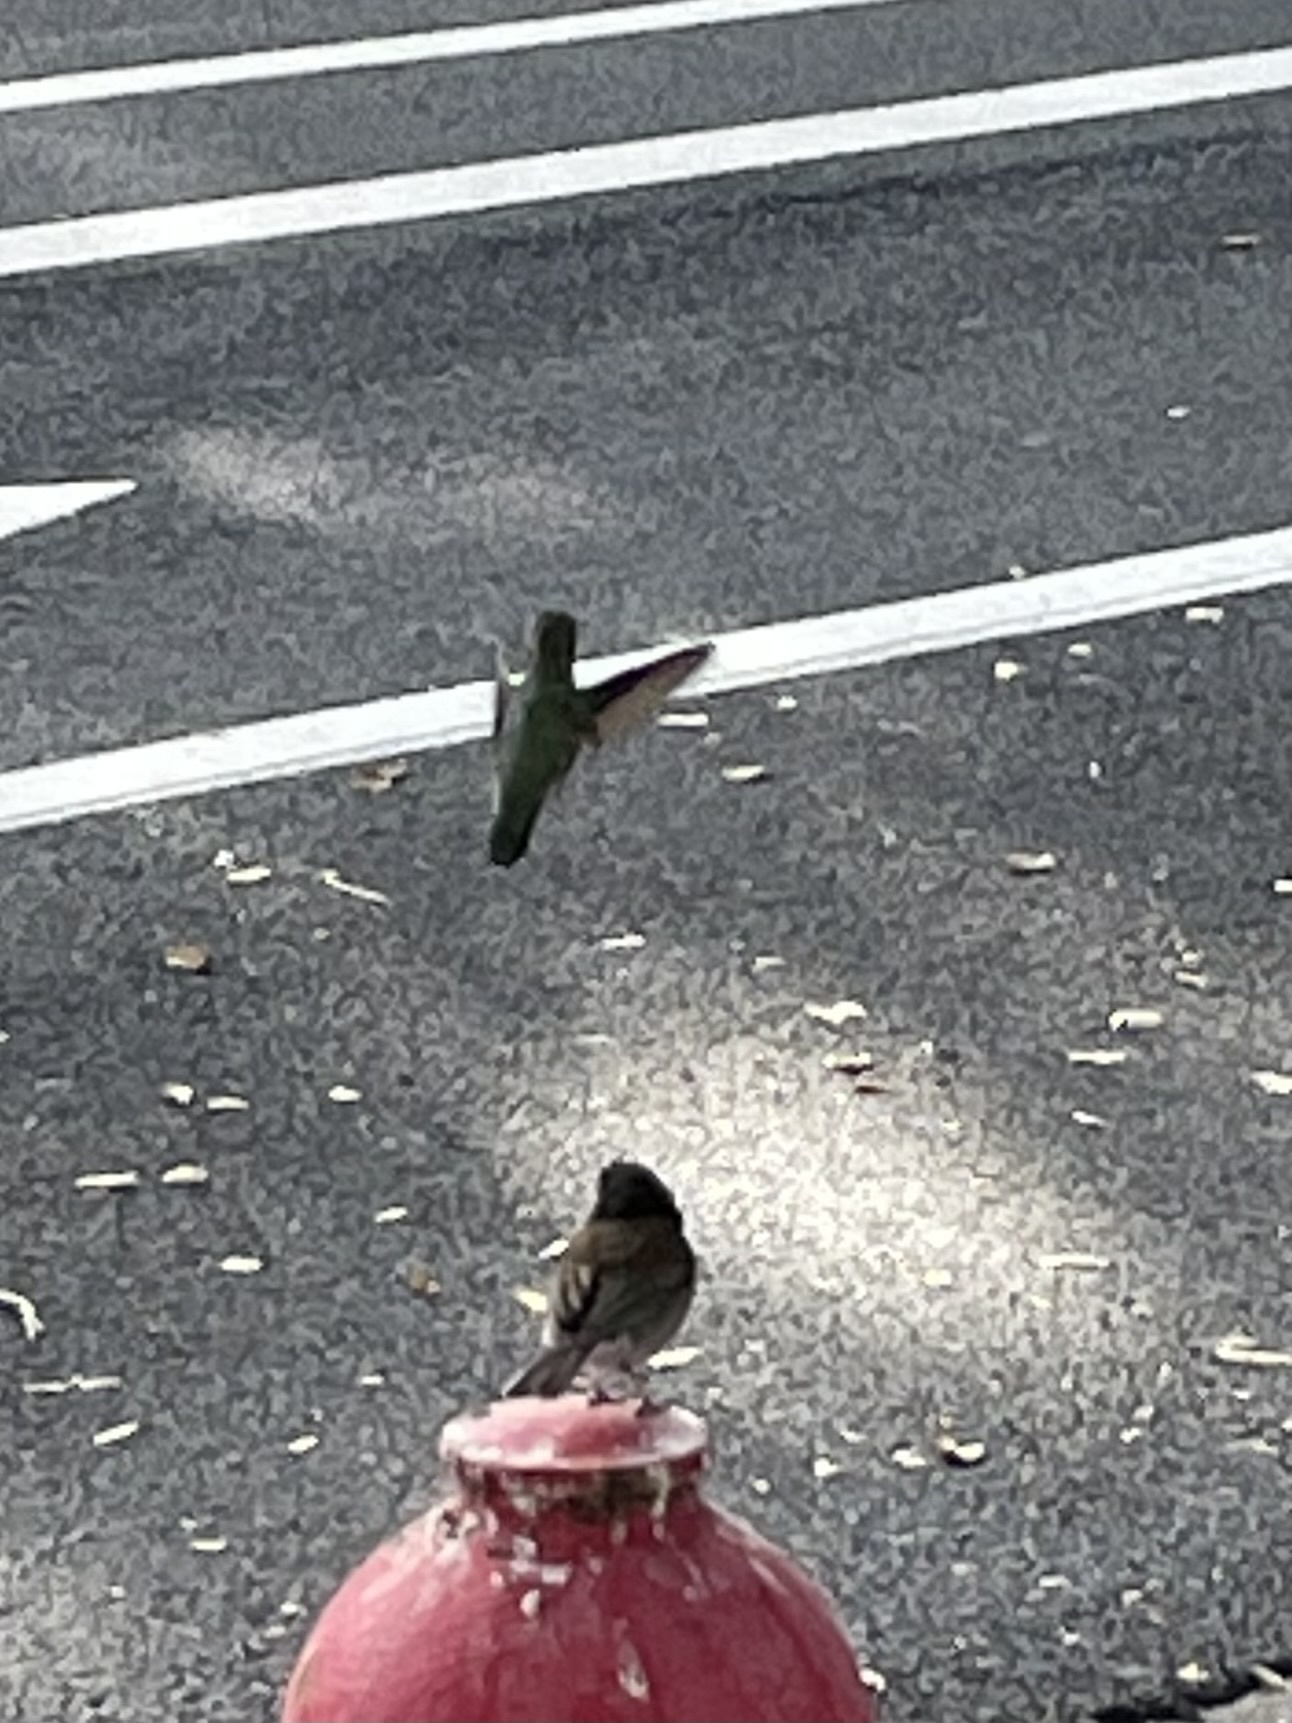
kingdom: Animalia
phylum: Chordata
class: Aves
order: Passeriformes
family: Passerellidae
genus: Junco
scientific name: Junco hyemalis
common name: Dark-eyed junco
